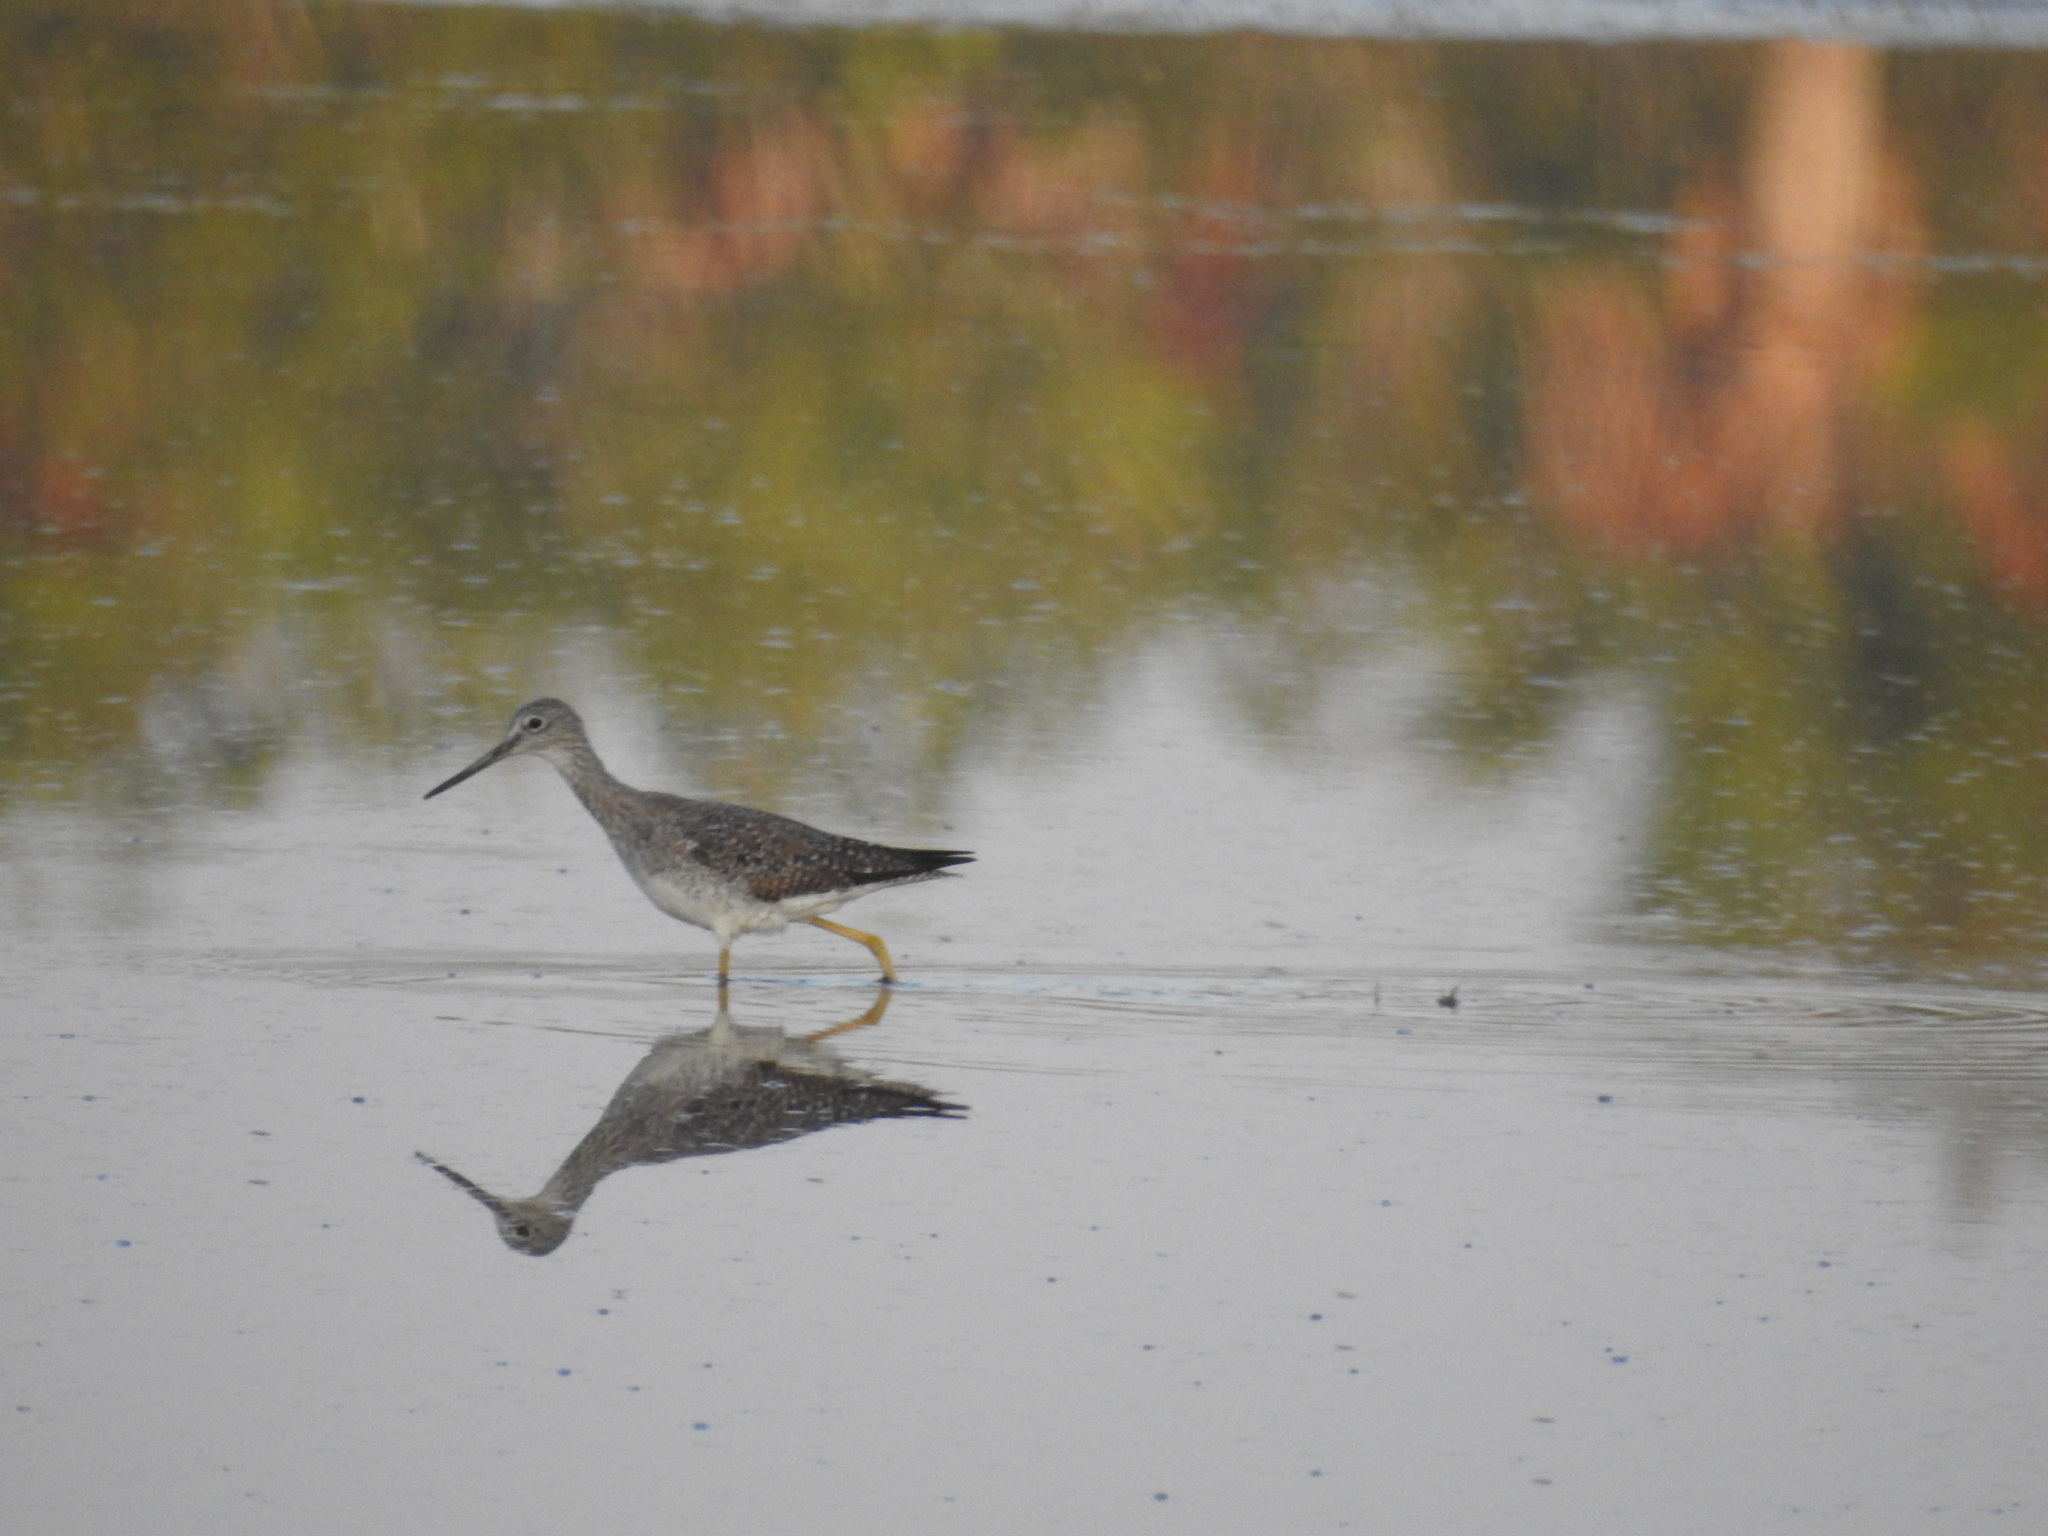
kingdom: Animalia
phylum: Chordata
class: Aves
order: Charadriiformes
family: Scolopacidae
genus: Tringa
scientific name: Tringa melanoleuca
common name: Greater yellowlegs
